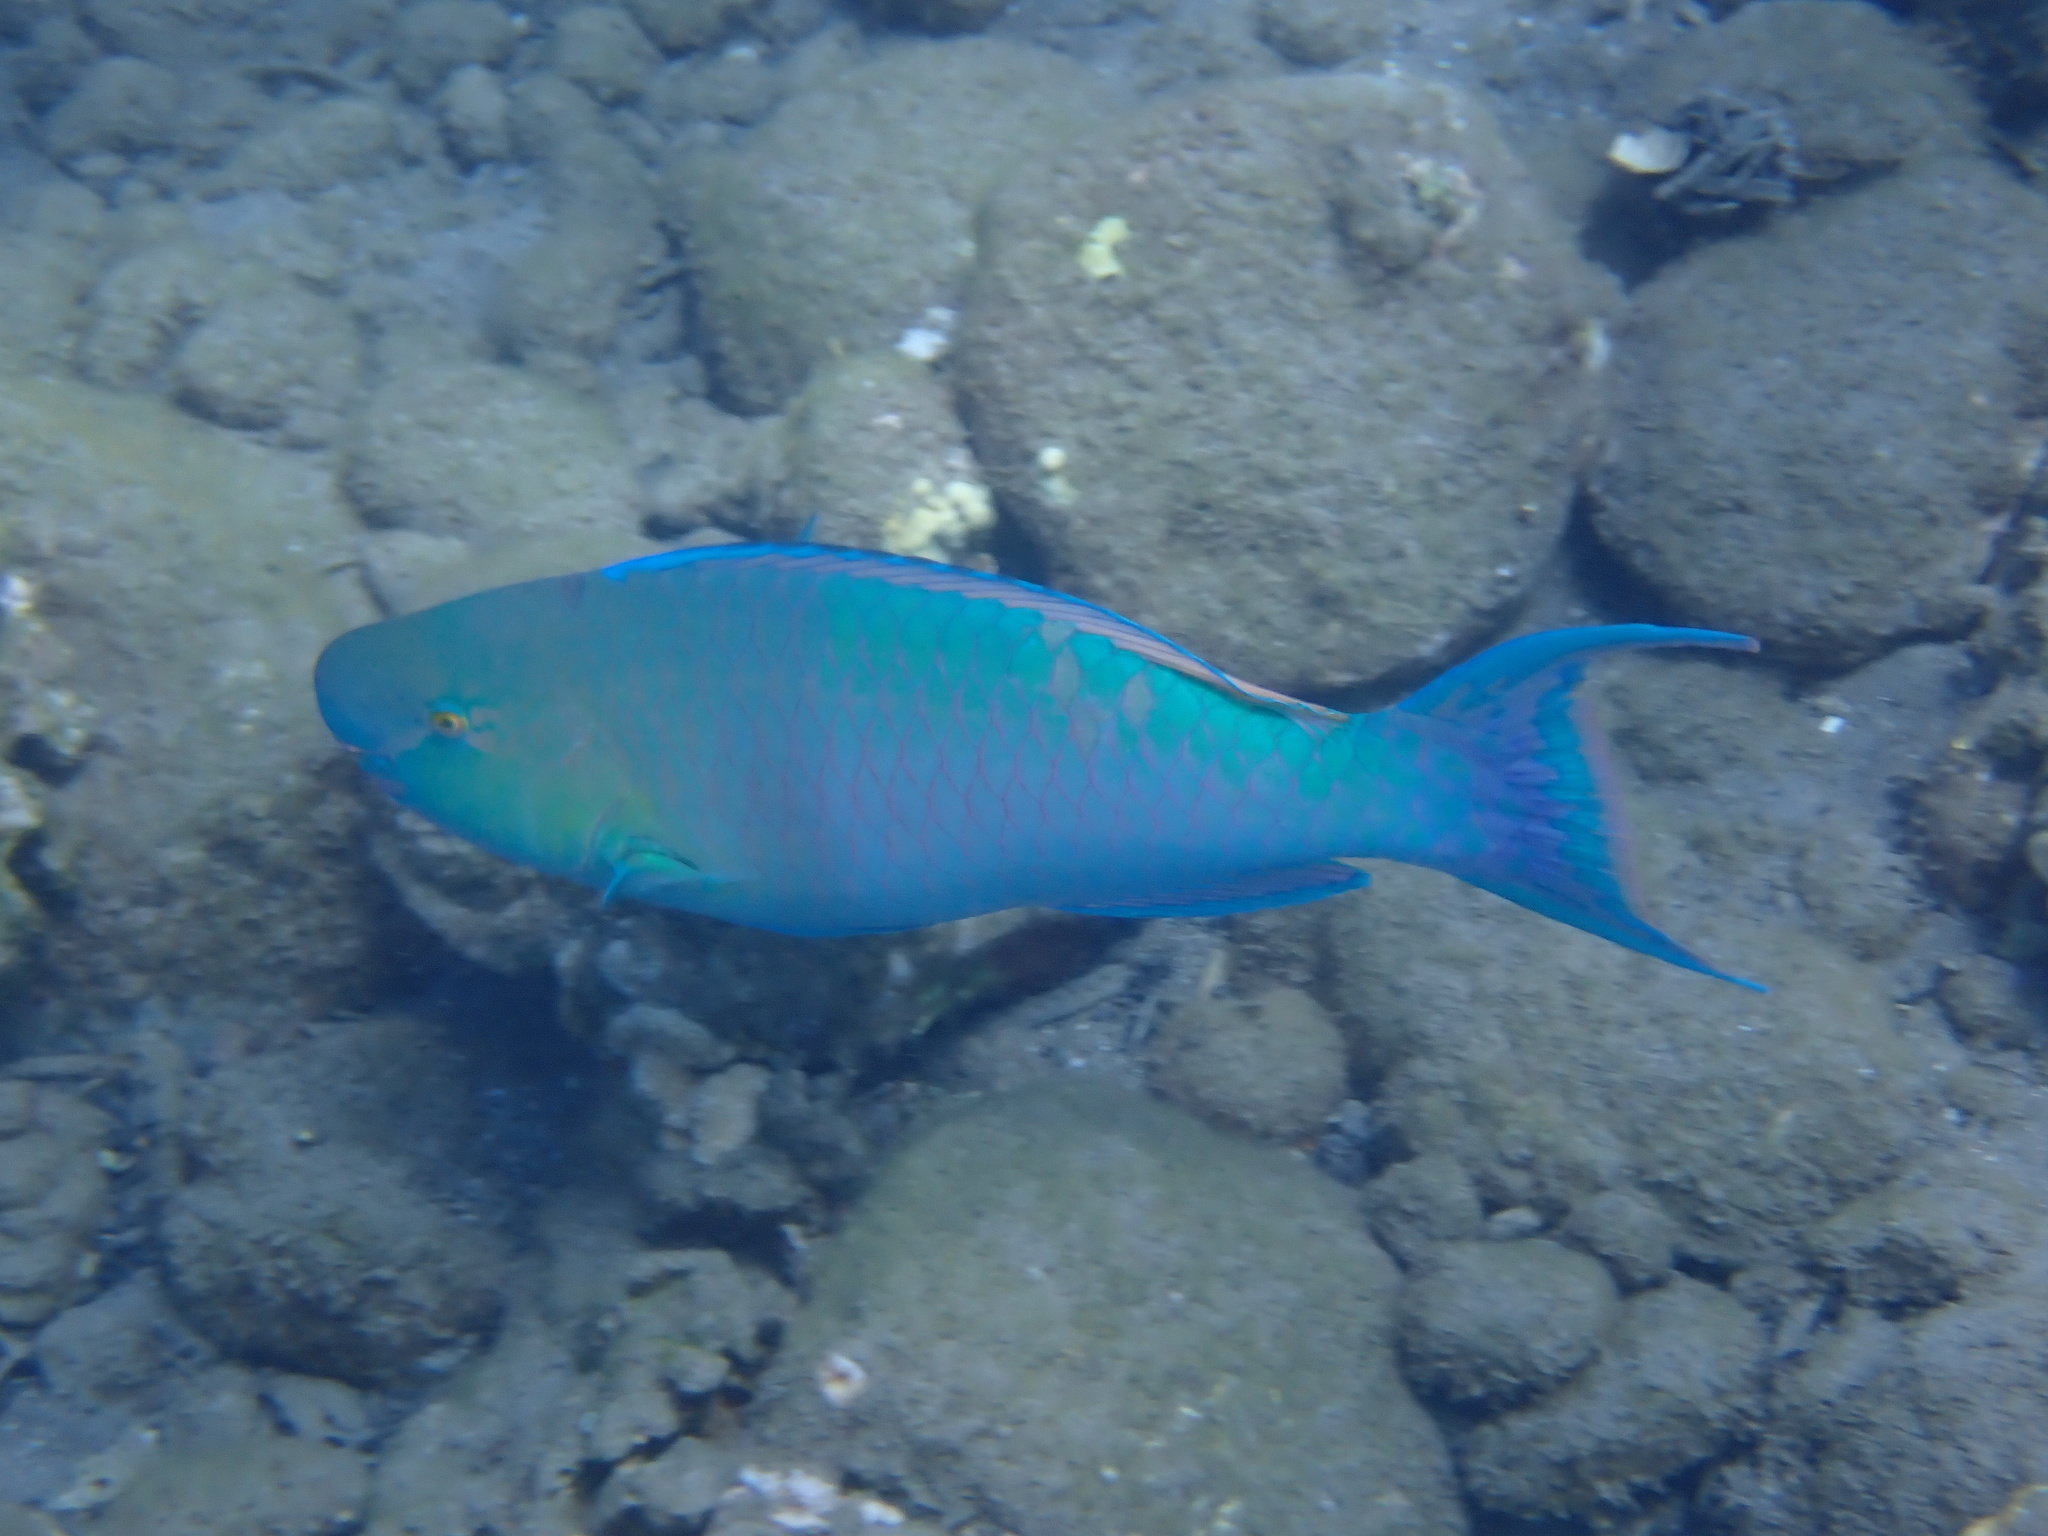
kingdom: Animalia
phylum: Chordata
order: Perciformes
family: Scaridae
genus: Scarus
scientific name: Scarus rubroviolaceus
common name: Ember parrotfish
